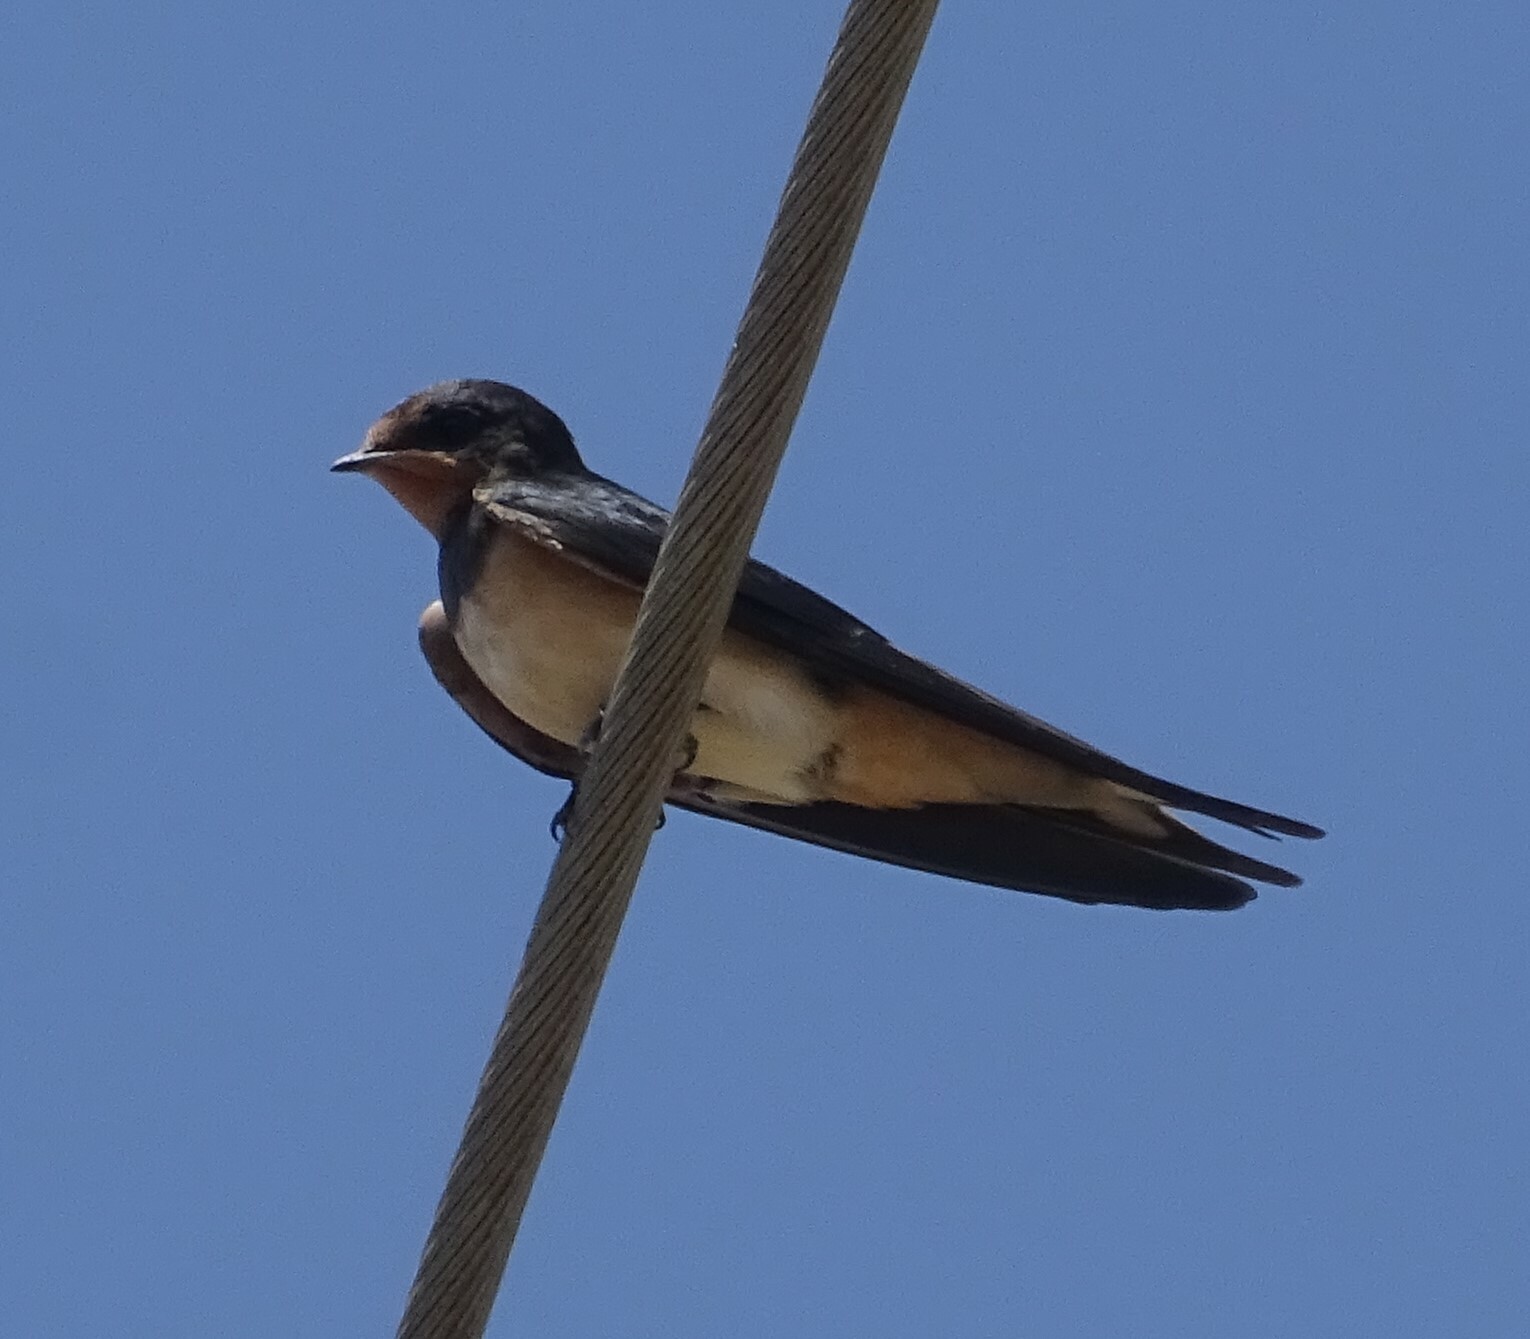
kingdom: Animalia
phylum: Chordata
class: Aves
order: Passeriformes
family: Hirundinidae
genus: Hirundo
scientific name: Hirundo rustica
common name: Barn swallow
